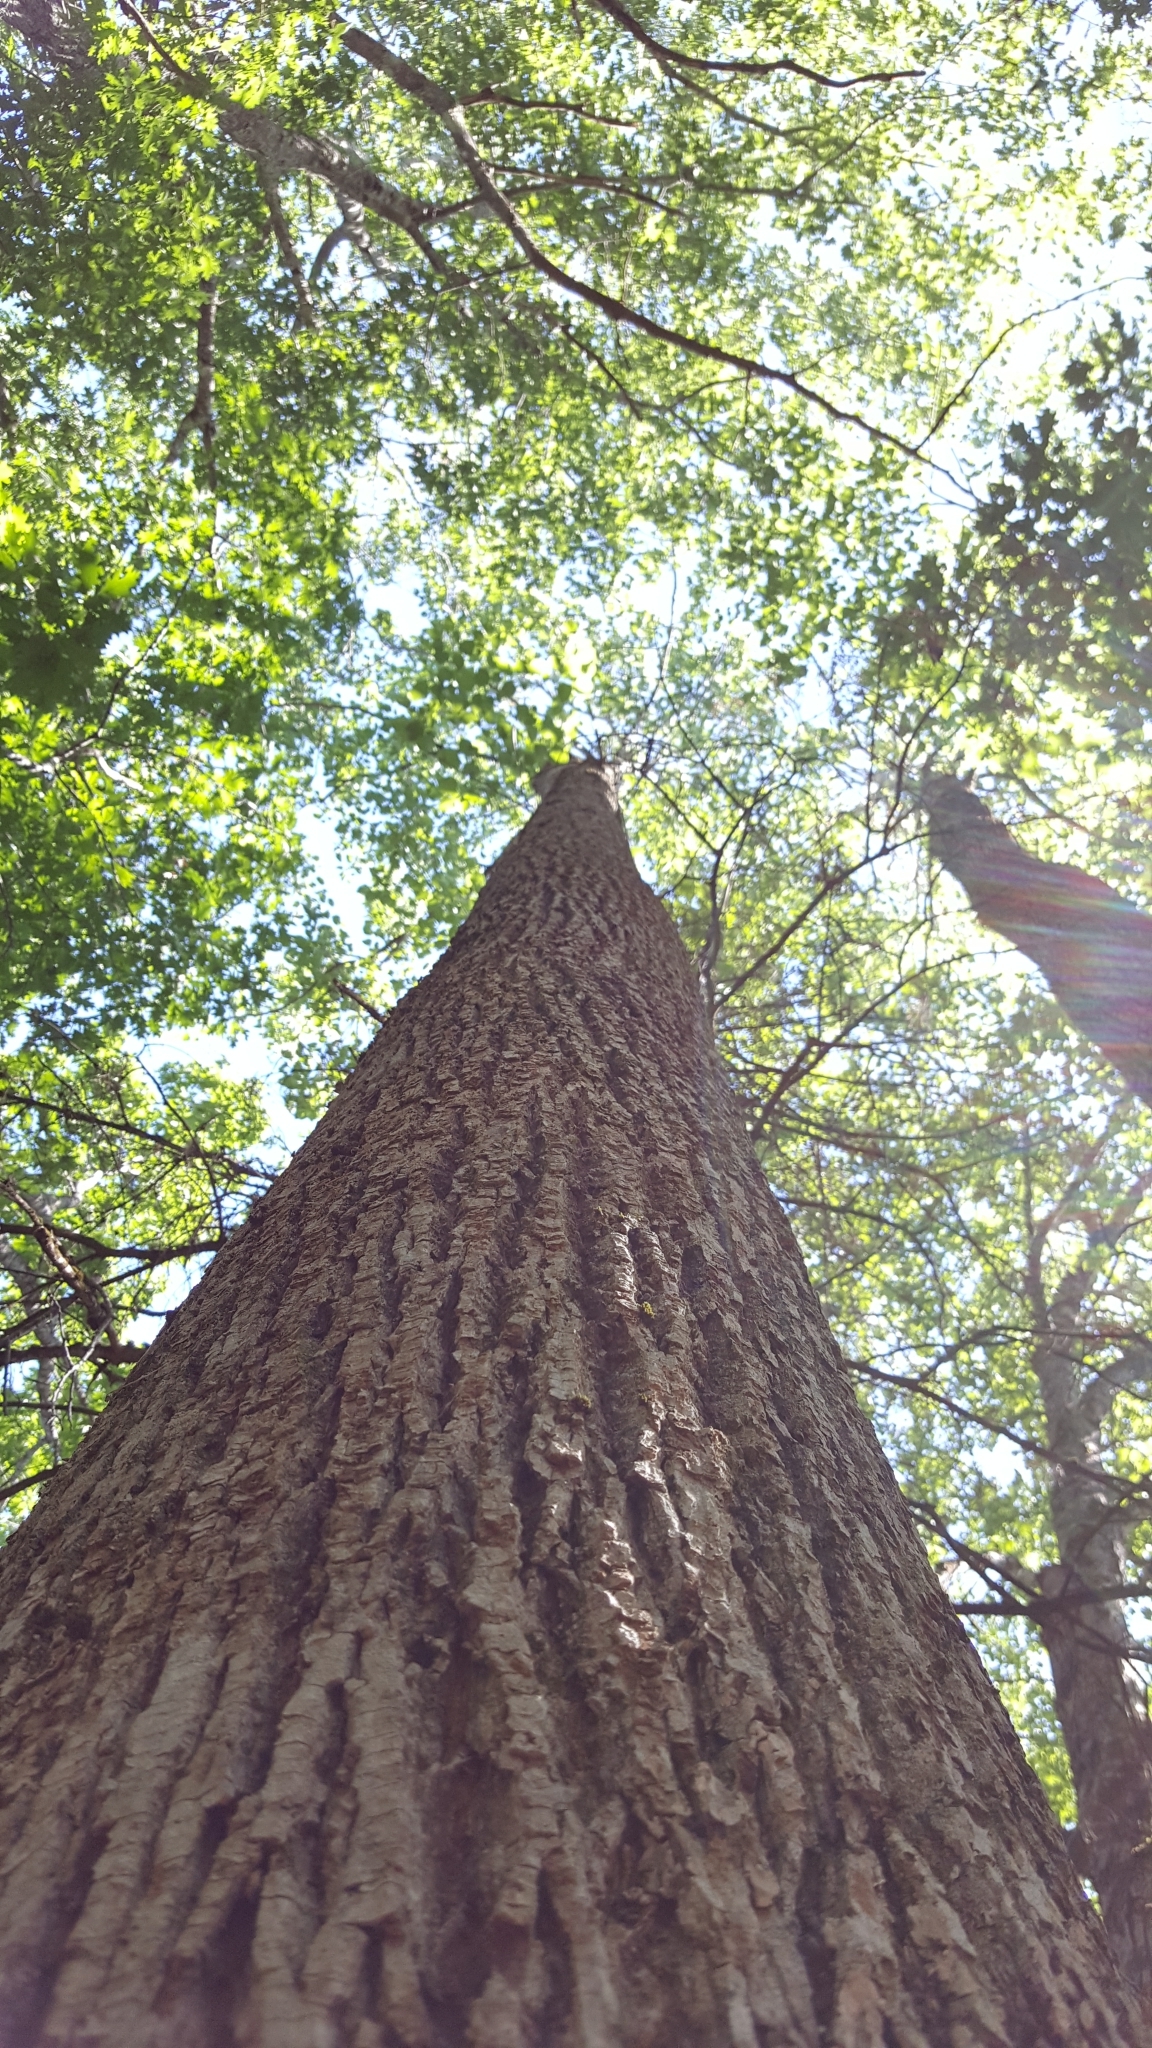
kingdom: Plantae
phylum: Tracheophyta
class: Magnoliopsida
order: Malvales
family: Malvaceae
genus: Tilia
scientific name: Tilia americana
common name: Basswood
